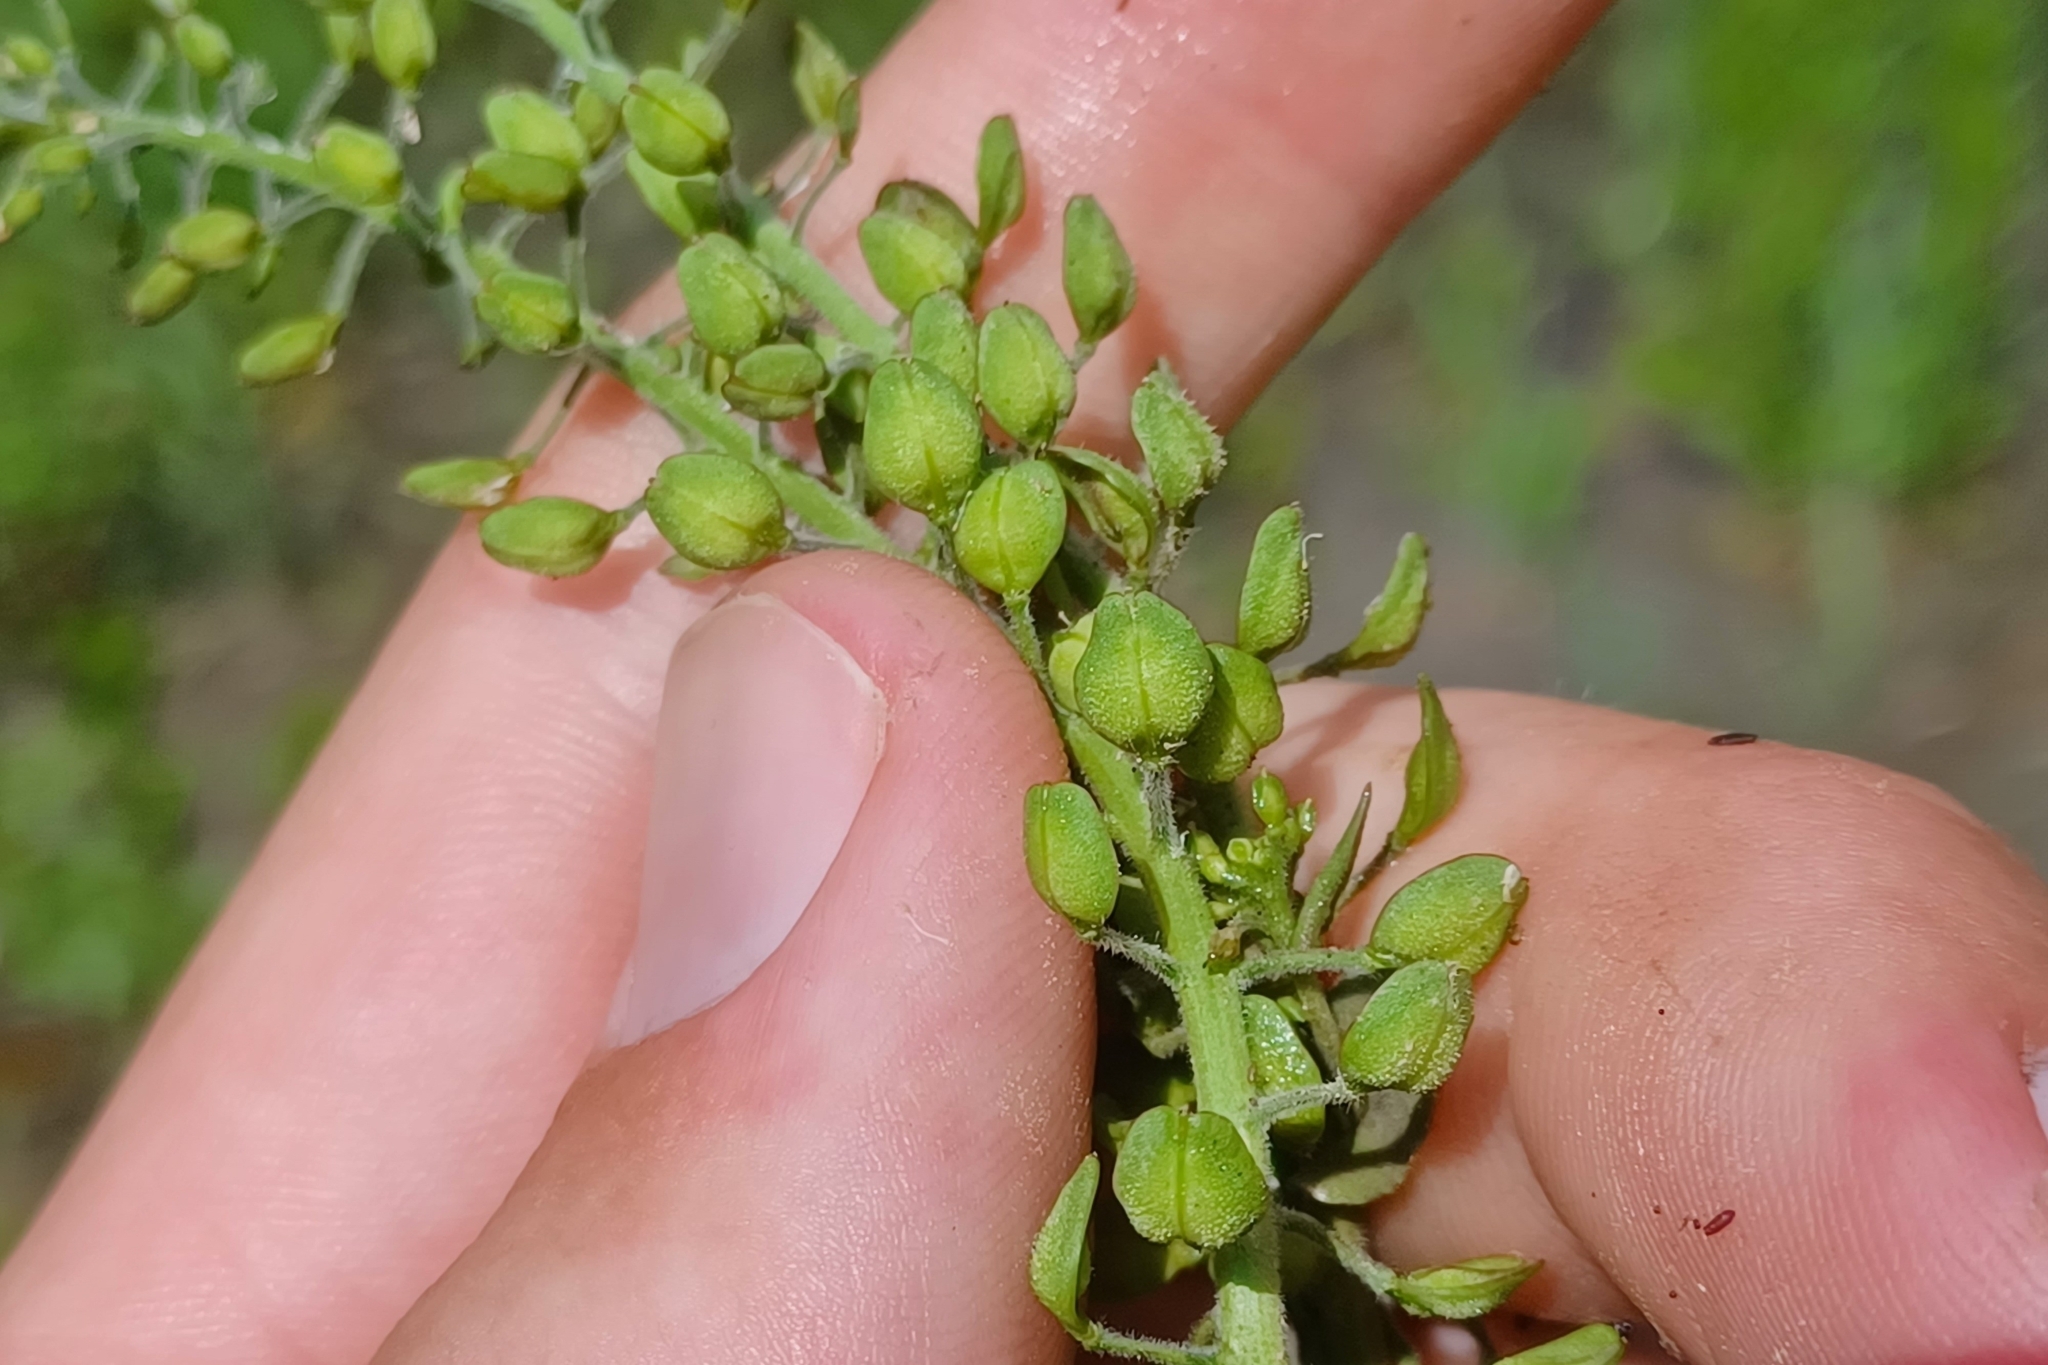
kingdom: Plantae
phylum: Tracheophyta
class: Magnoliopsida
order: Brassicales
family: Brassicaceae
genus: Lepidium
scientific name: Lepidium campestre
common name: Field pepperwort
